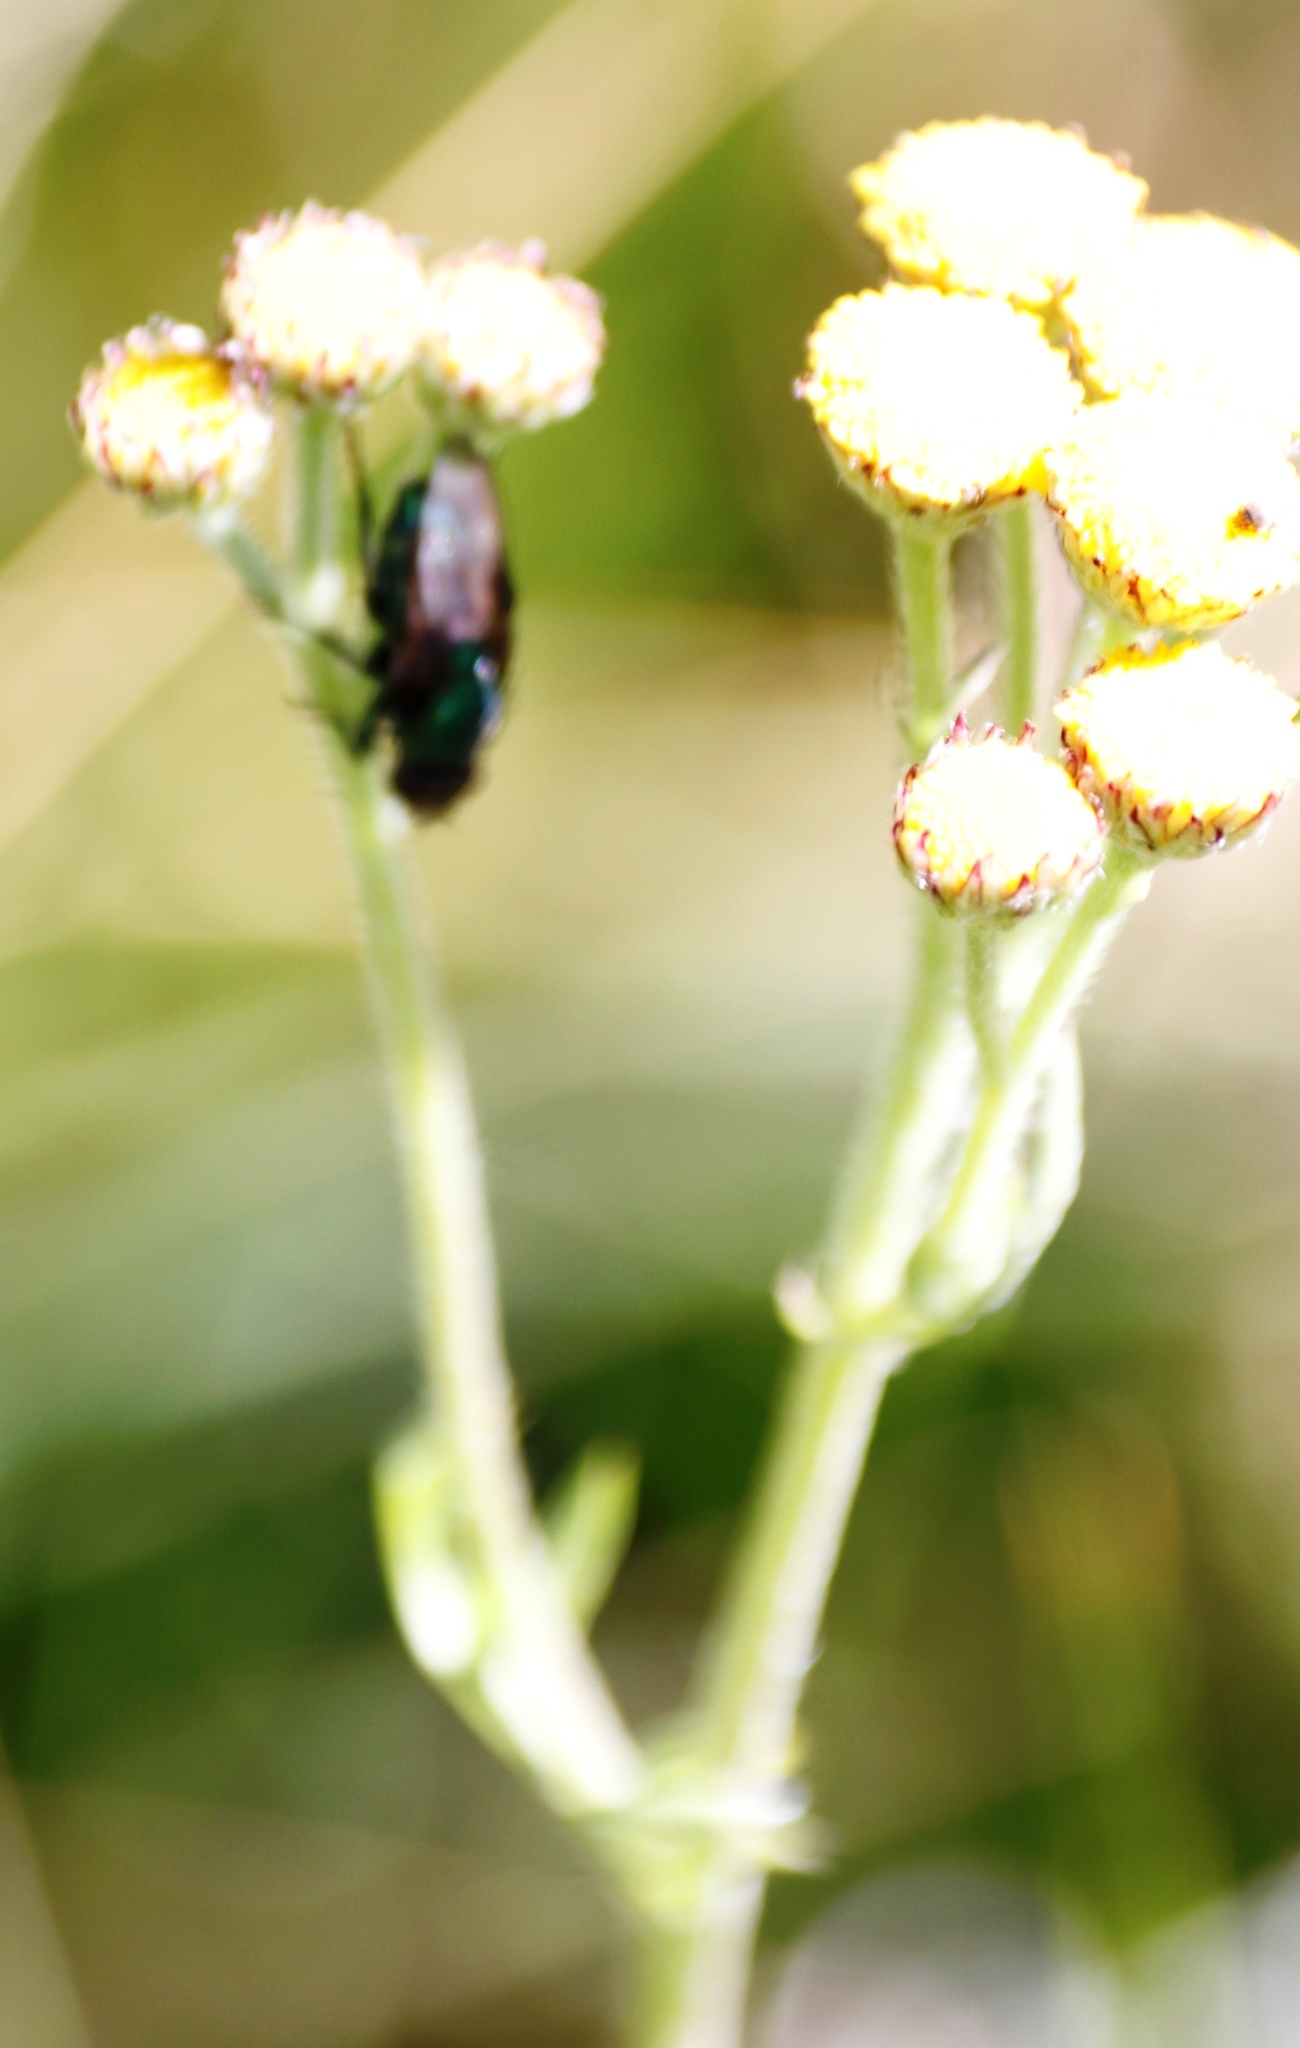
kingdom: Plantae
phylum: Tracheophyta
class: Magnoliopsida
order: Asterales
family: Asteraceae
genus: Schistostephium
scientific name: Schistostephium crataegifolium
